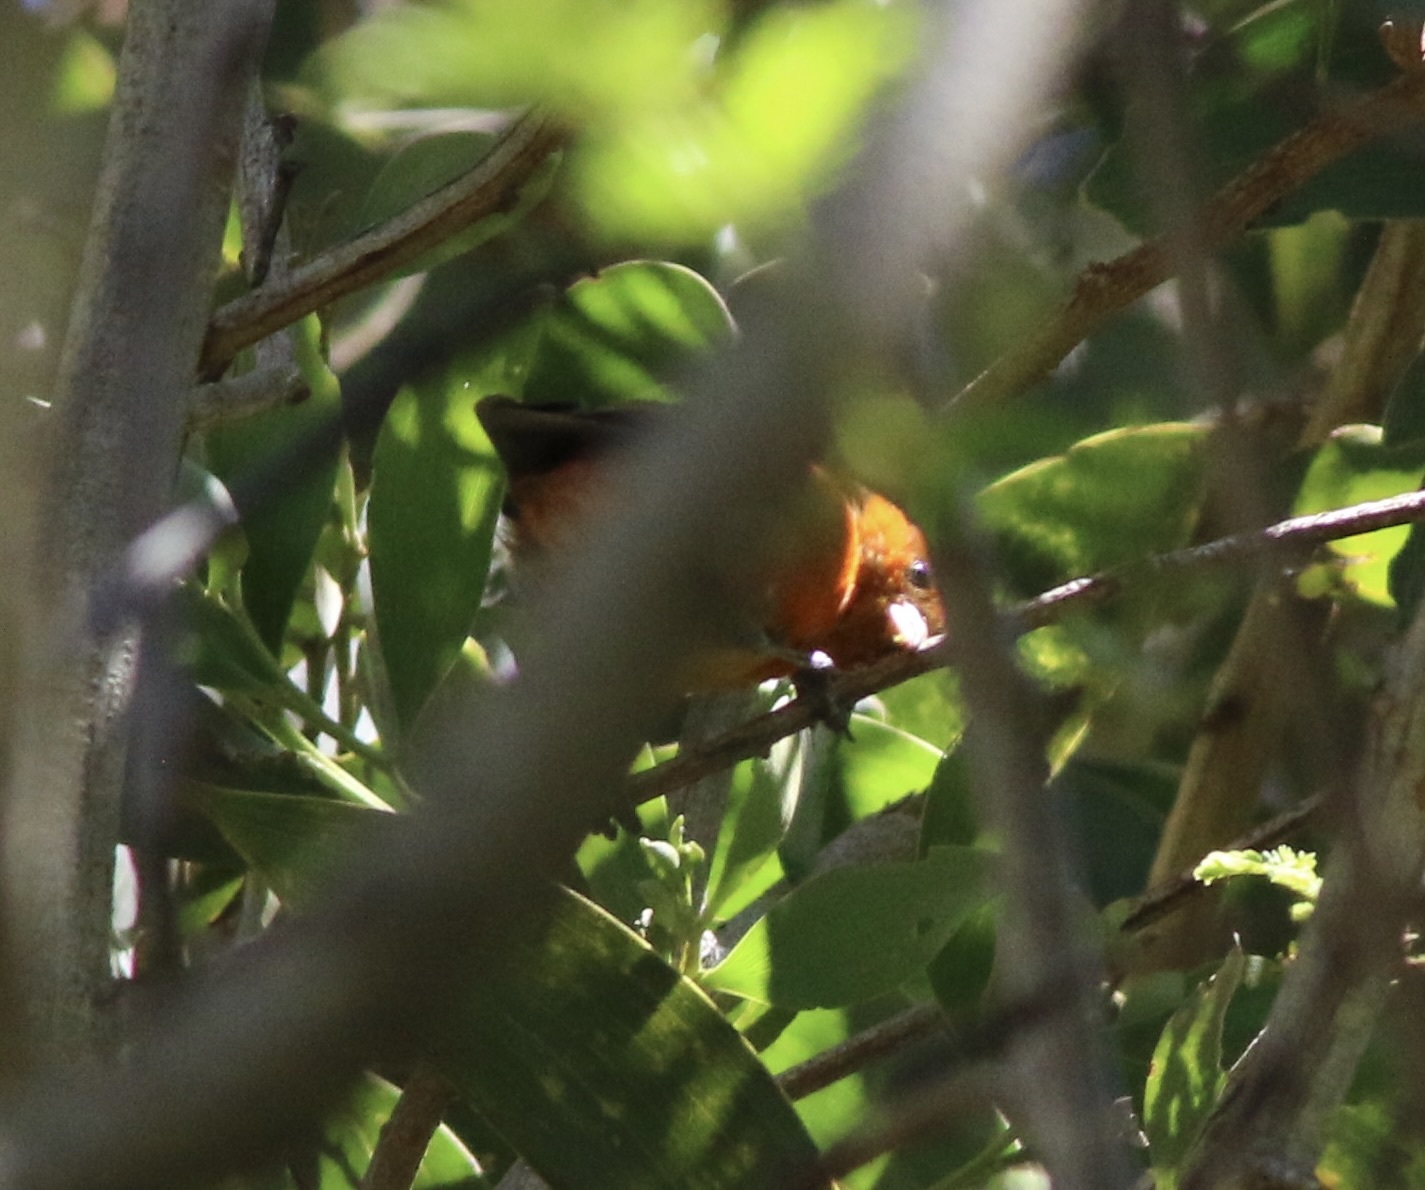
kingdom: Animalia
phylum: Chordata
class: Aves
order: Passeriformes
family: Fringillidae
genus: Loxops
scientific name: Loxops coccineus
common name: Hawaii akepa
